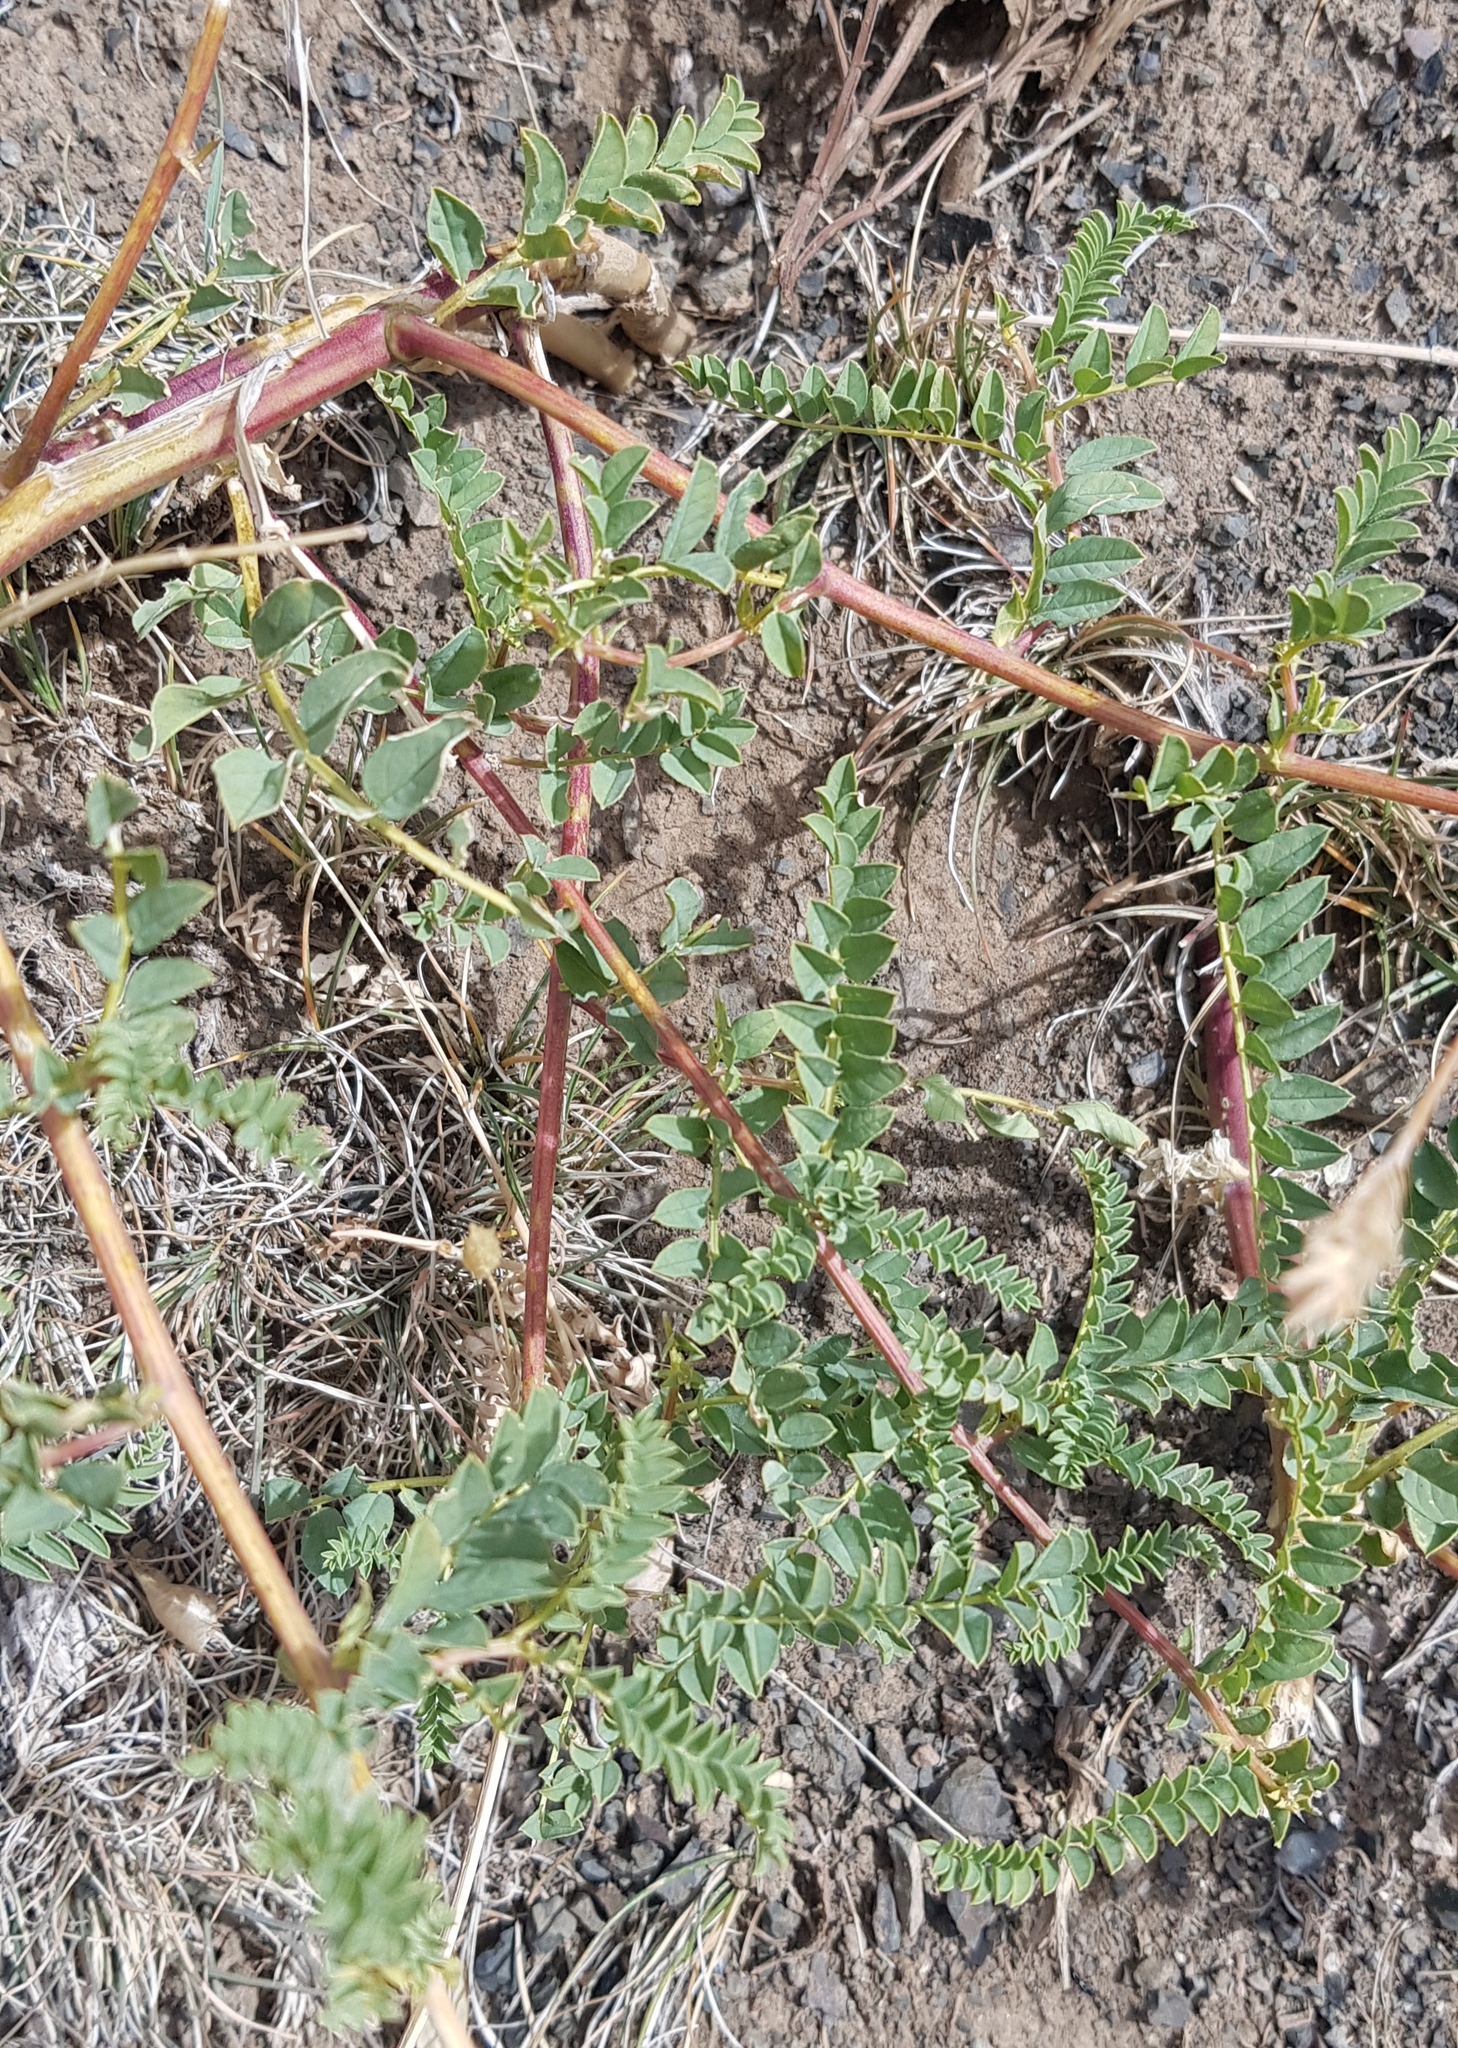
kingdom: Plantae
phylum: Tracheophyta
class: Magnoliopsida
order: Fabales
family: Fabaceae
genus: Astragalus
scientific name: Astragalus chinensis
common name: Chinese milkvetch
